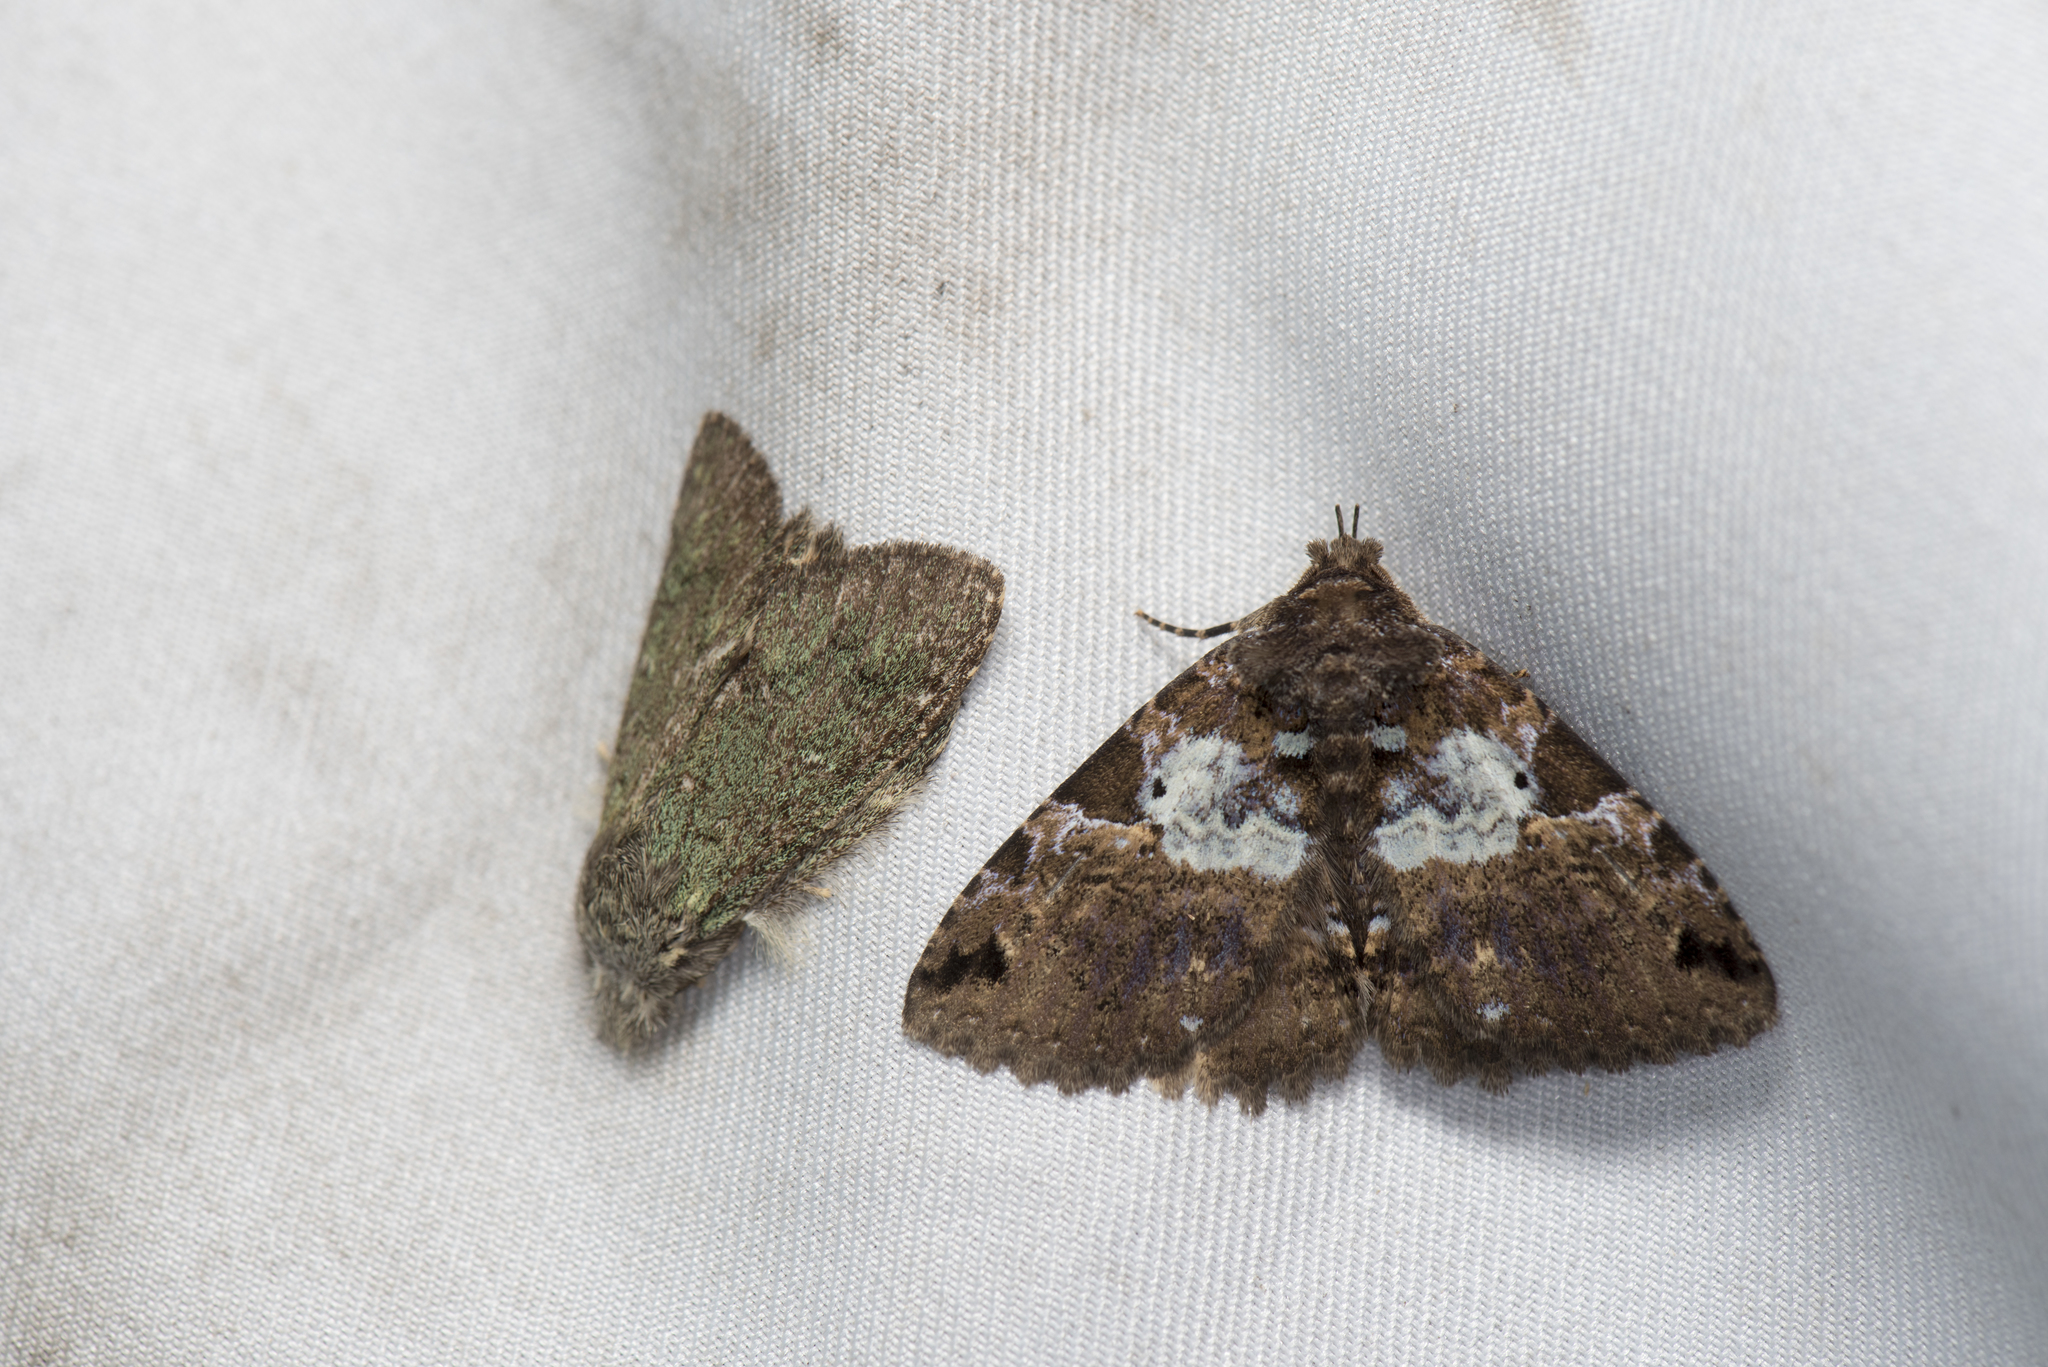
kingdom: Animalia
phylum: Arthropoda
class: Insecta
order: Lepidoptera
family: Erebidae
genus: Daddala
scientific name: Daddala lucilla
